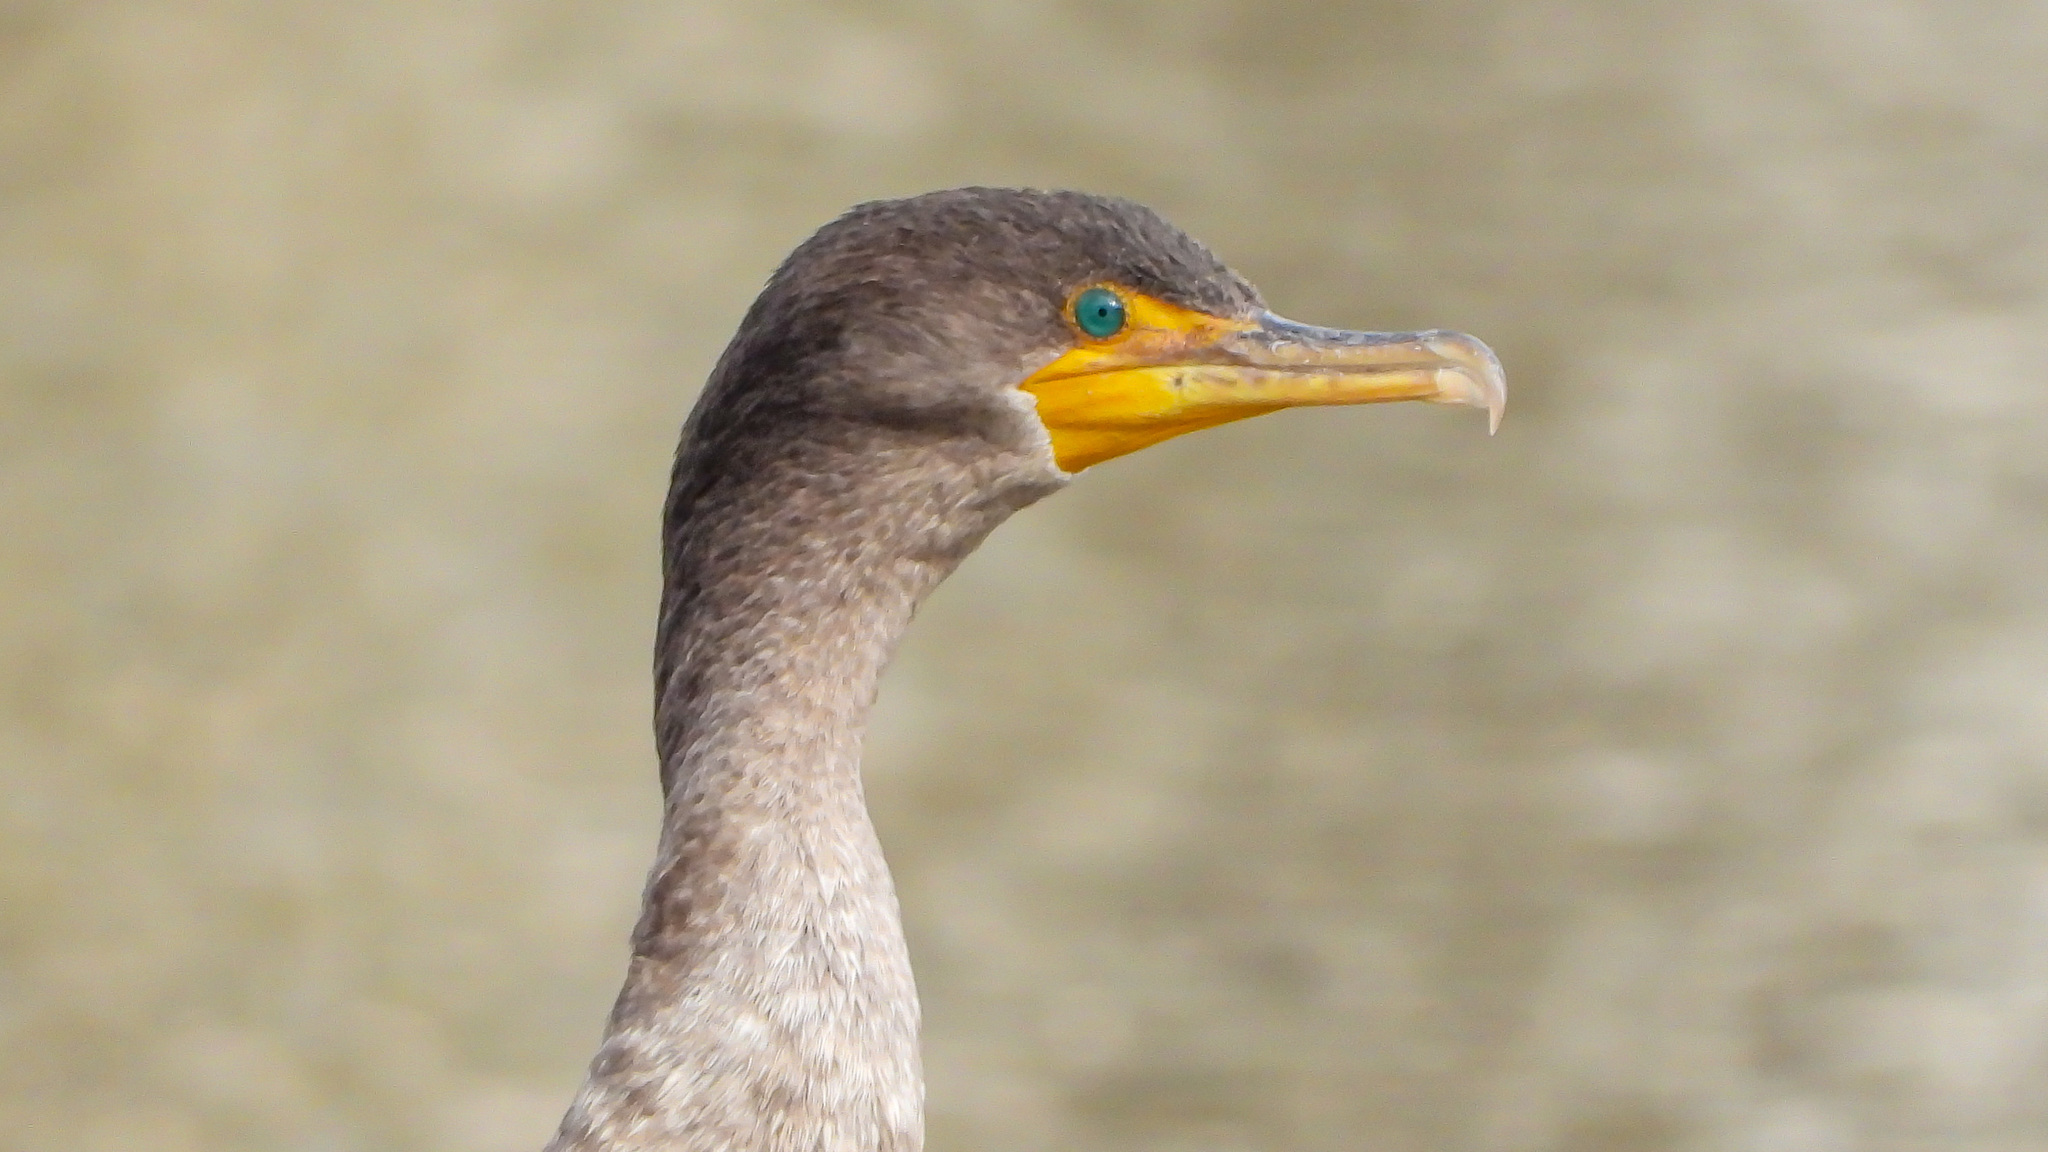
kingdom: Animalia
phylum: Chordata
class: Aves
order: Suliformes
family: Phalacrocoracidae
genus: Phalacrocorax
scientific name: Phalacrocorax auritus
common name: Double-crested cormorant
